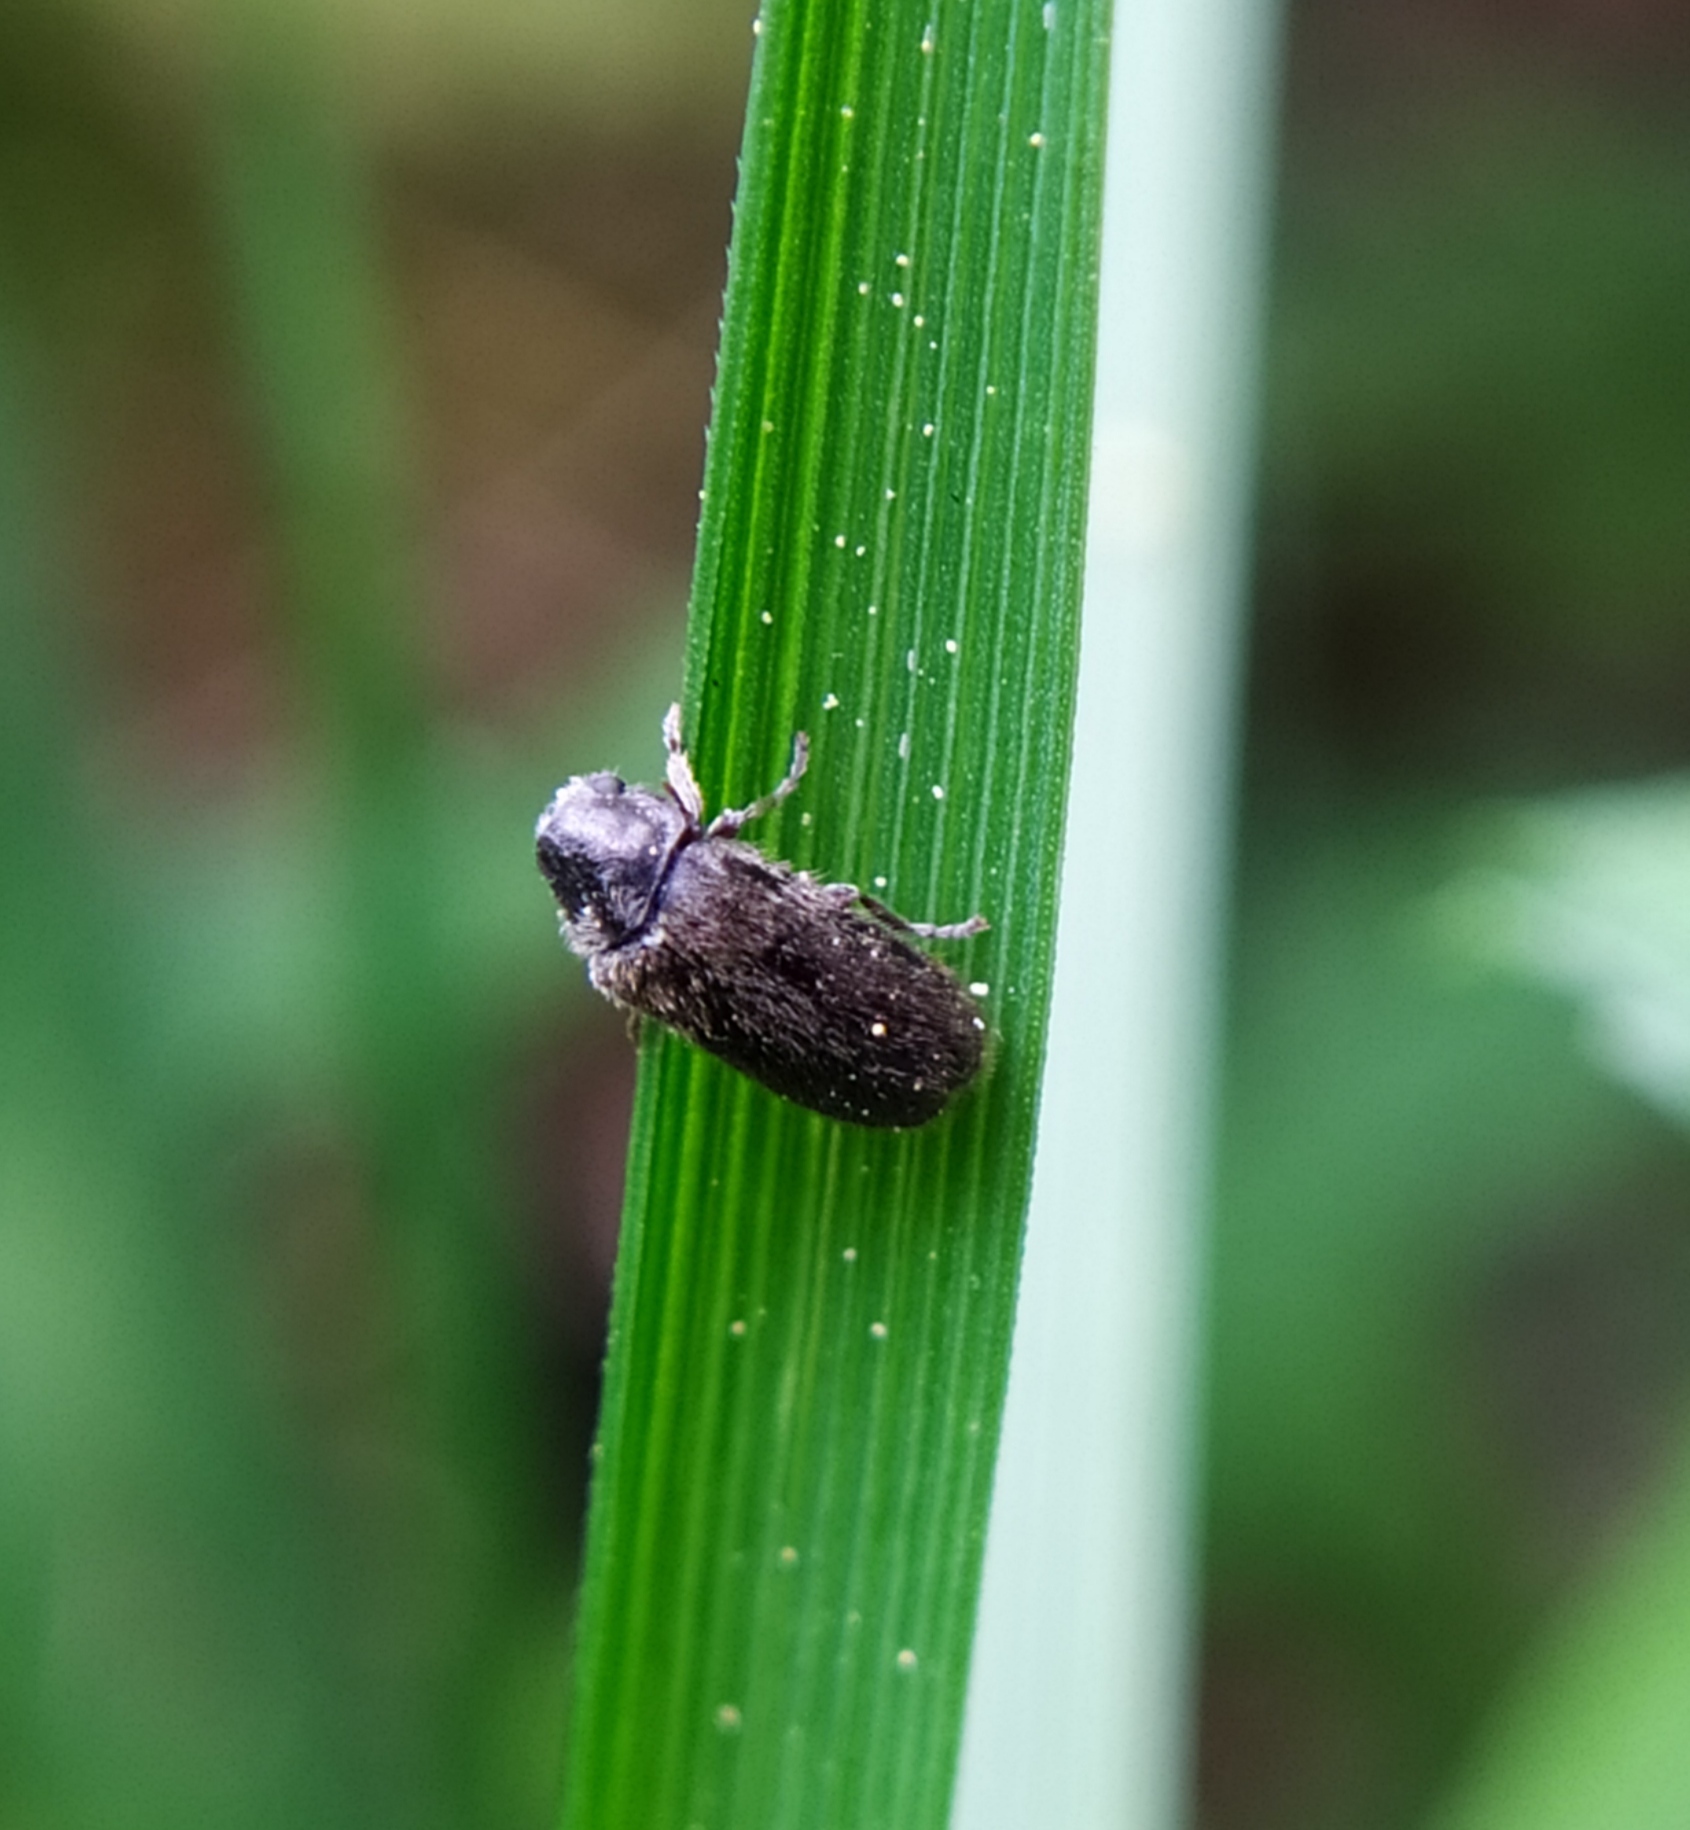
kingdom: Animalia
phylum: Arthropoda
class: Insecta
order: Coleoptera
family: Ptinidae
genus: Hyperisus
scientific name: Hyperisus plumbeus
